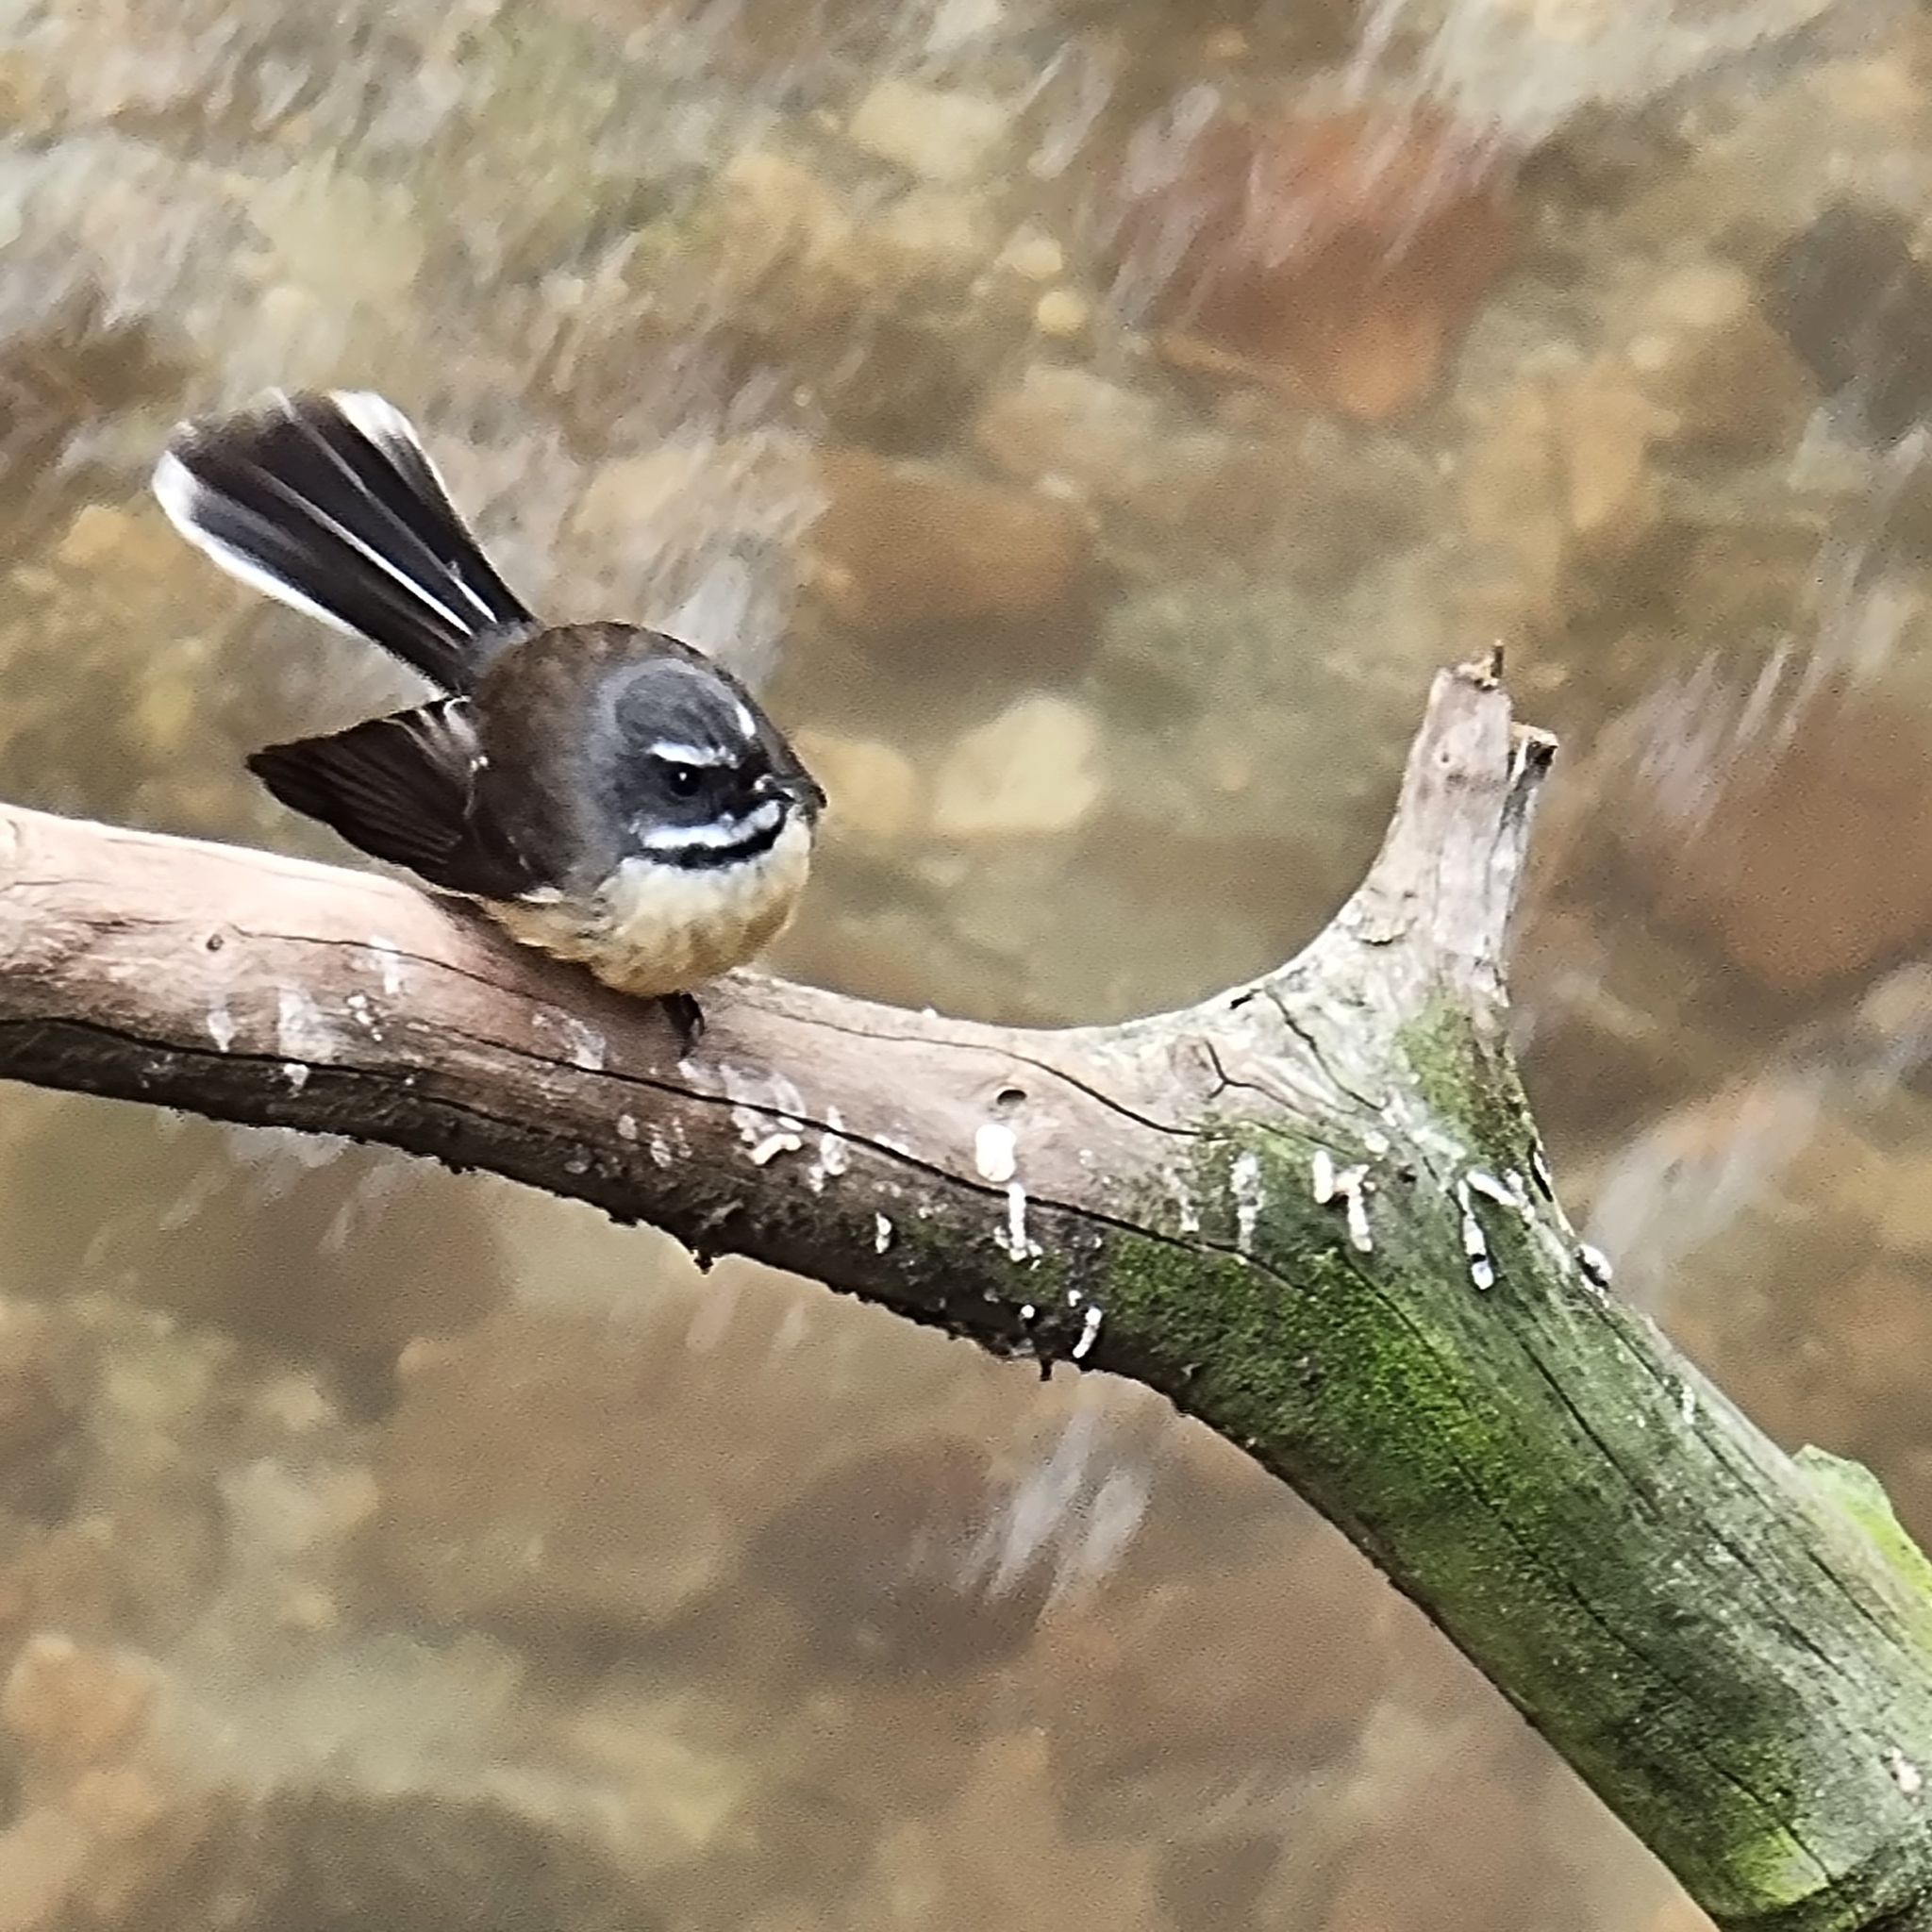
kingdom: Animalia
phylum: Chordata
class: Aves
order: Passeriformes
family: Rhipiduridae
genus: Rhipidura
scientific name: Rhipidura fuliginosa
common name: New zealand fantail
